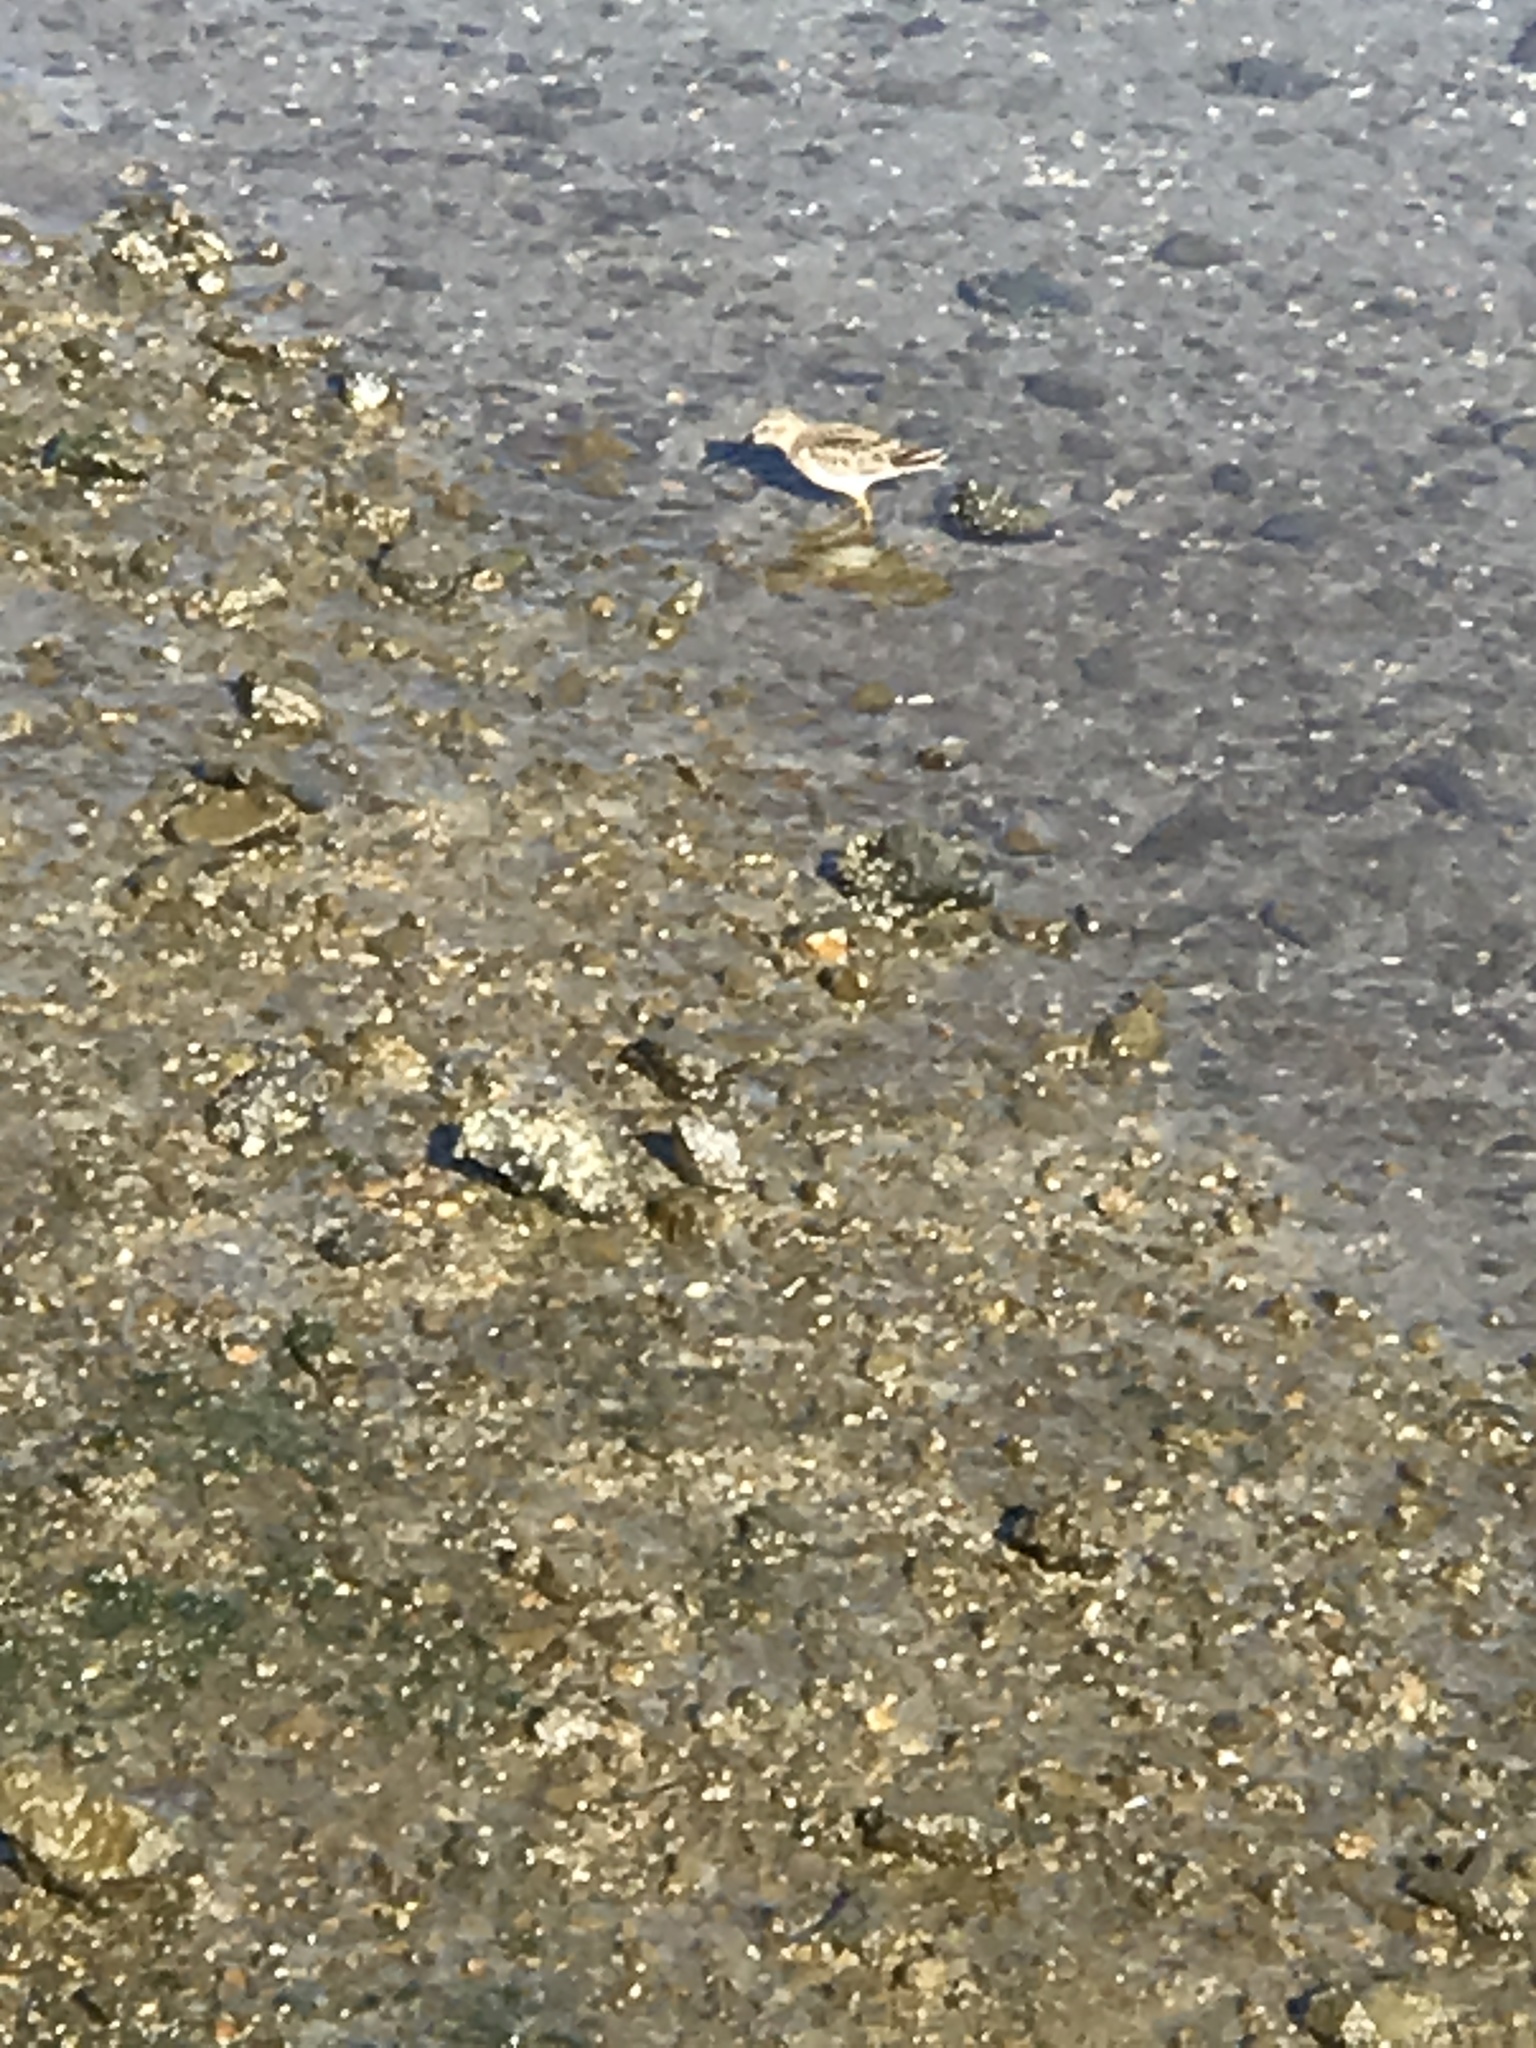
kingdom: Animalia
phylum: Chordata
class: Aves
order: Charadriiformes
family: Scolopacidae
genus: Calidris
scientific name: Calidris minutilla
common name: Least sandpiper
